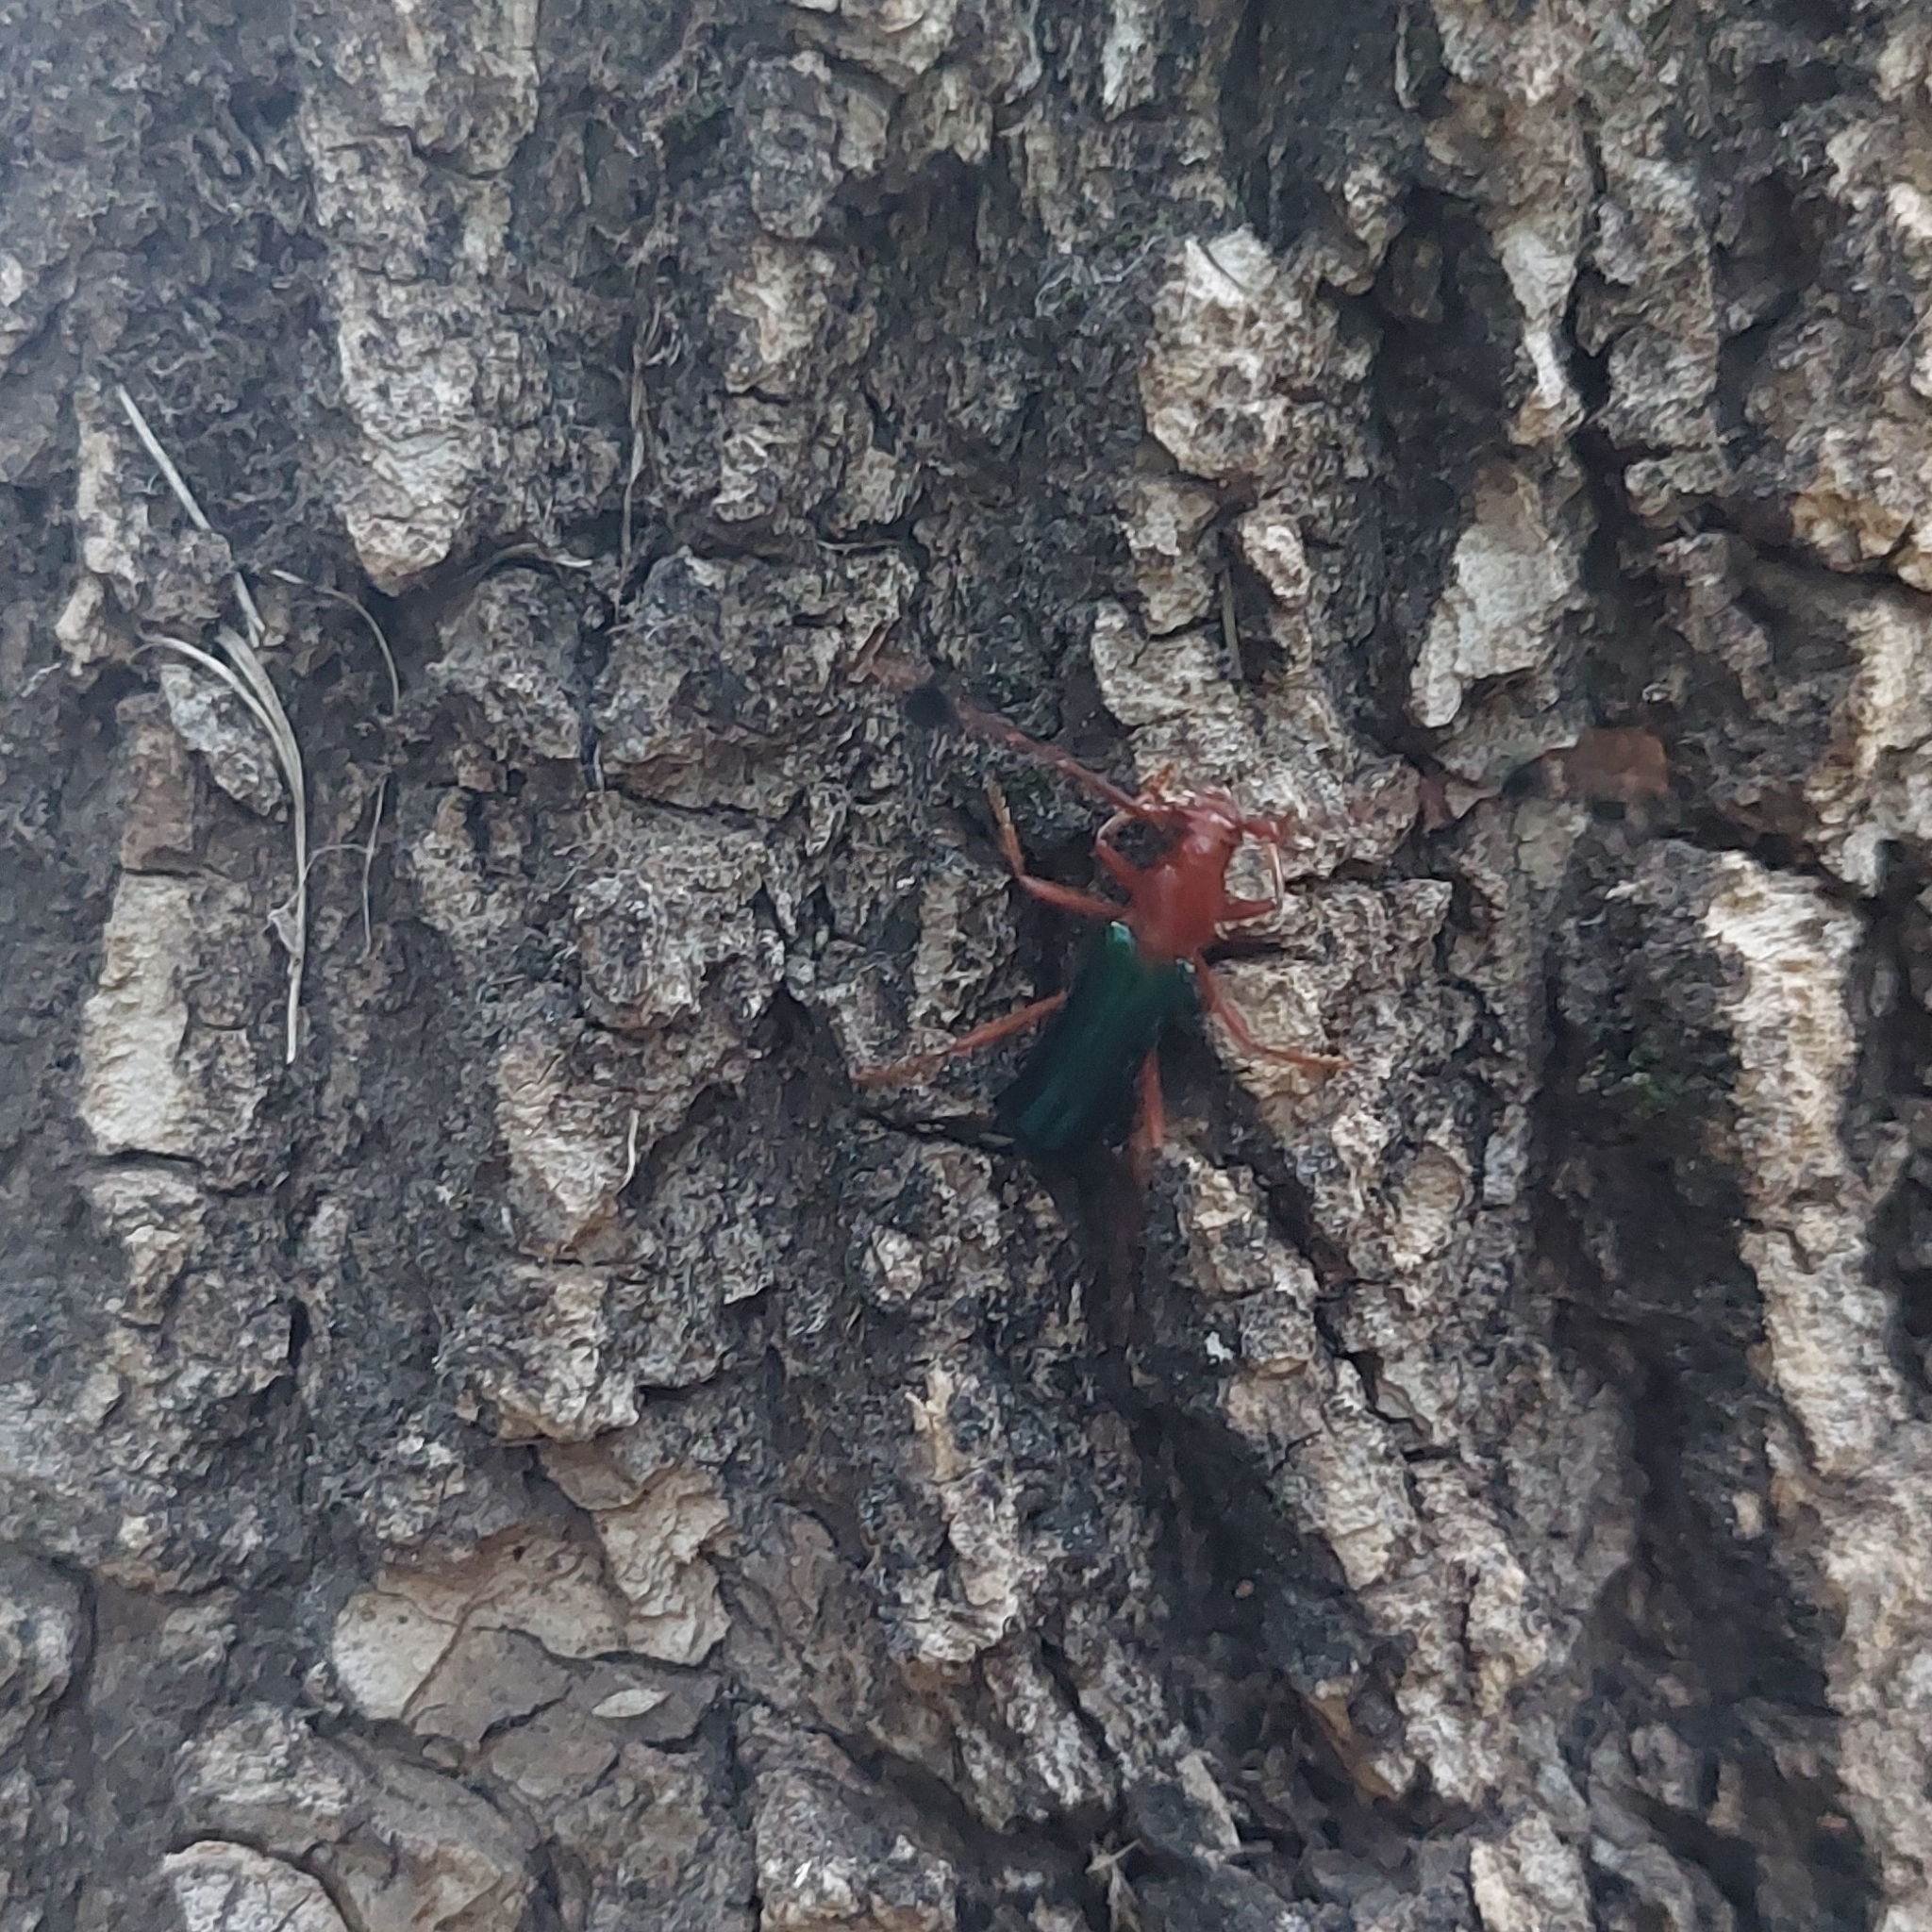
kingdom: Animalia
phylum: Arthropoda
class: Insecta
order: Coleoptera
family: Cerambycidae
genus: Compsocerus
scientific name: Compsocerus violaceus
